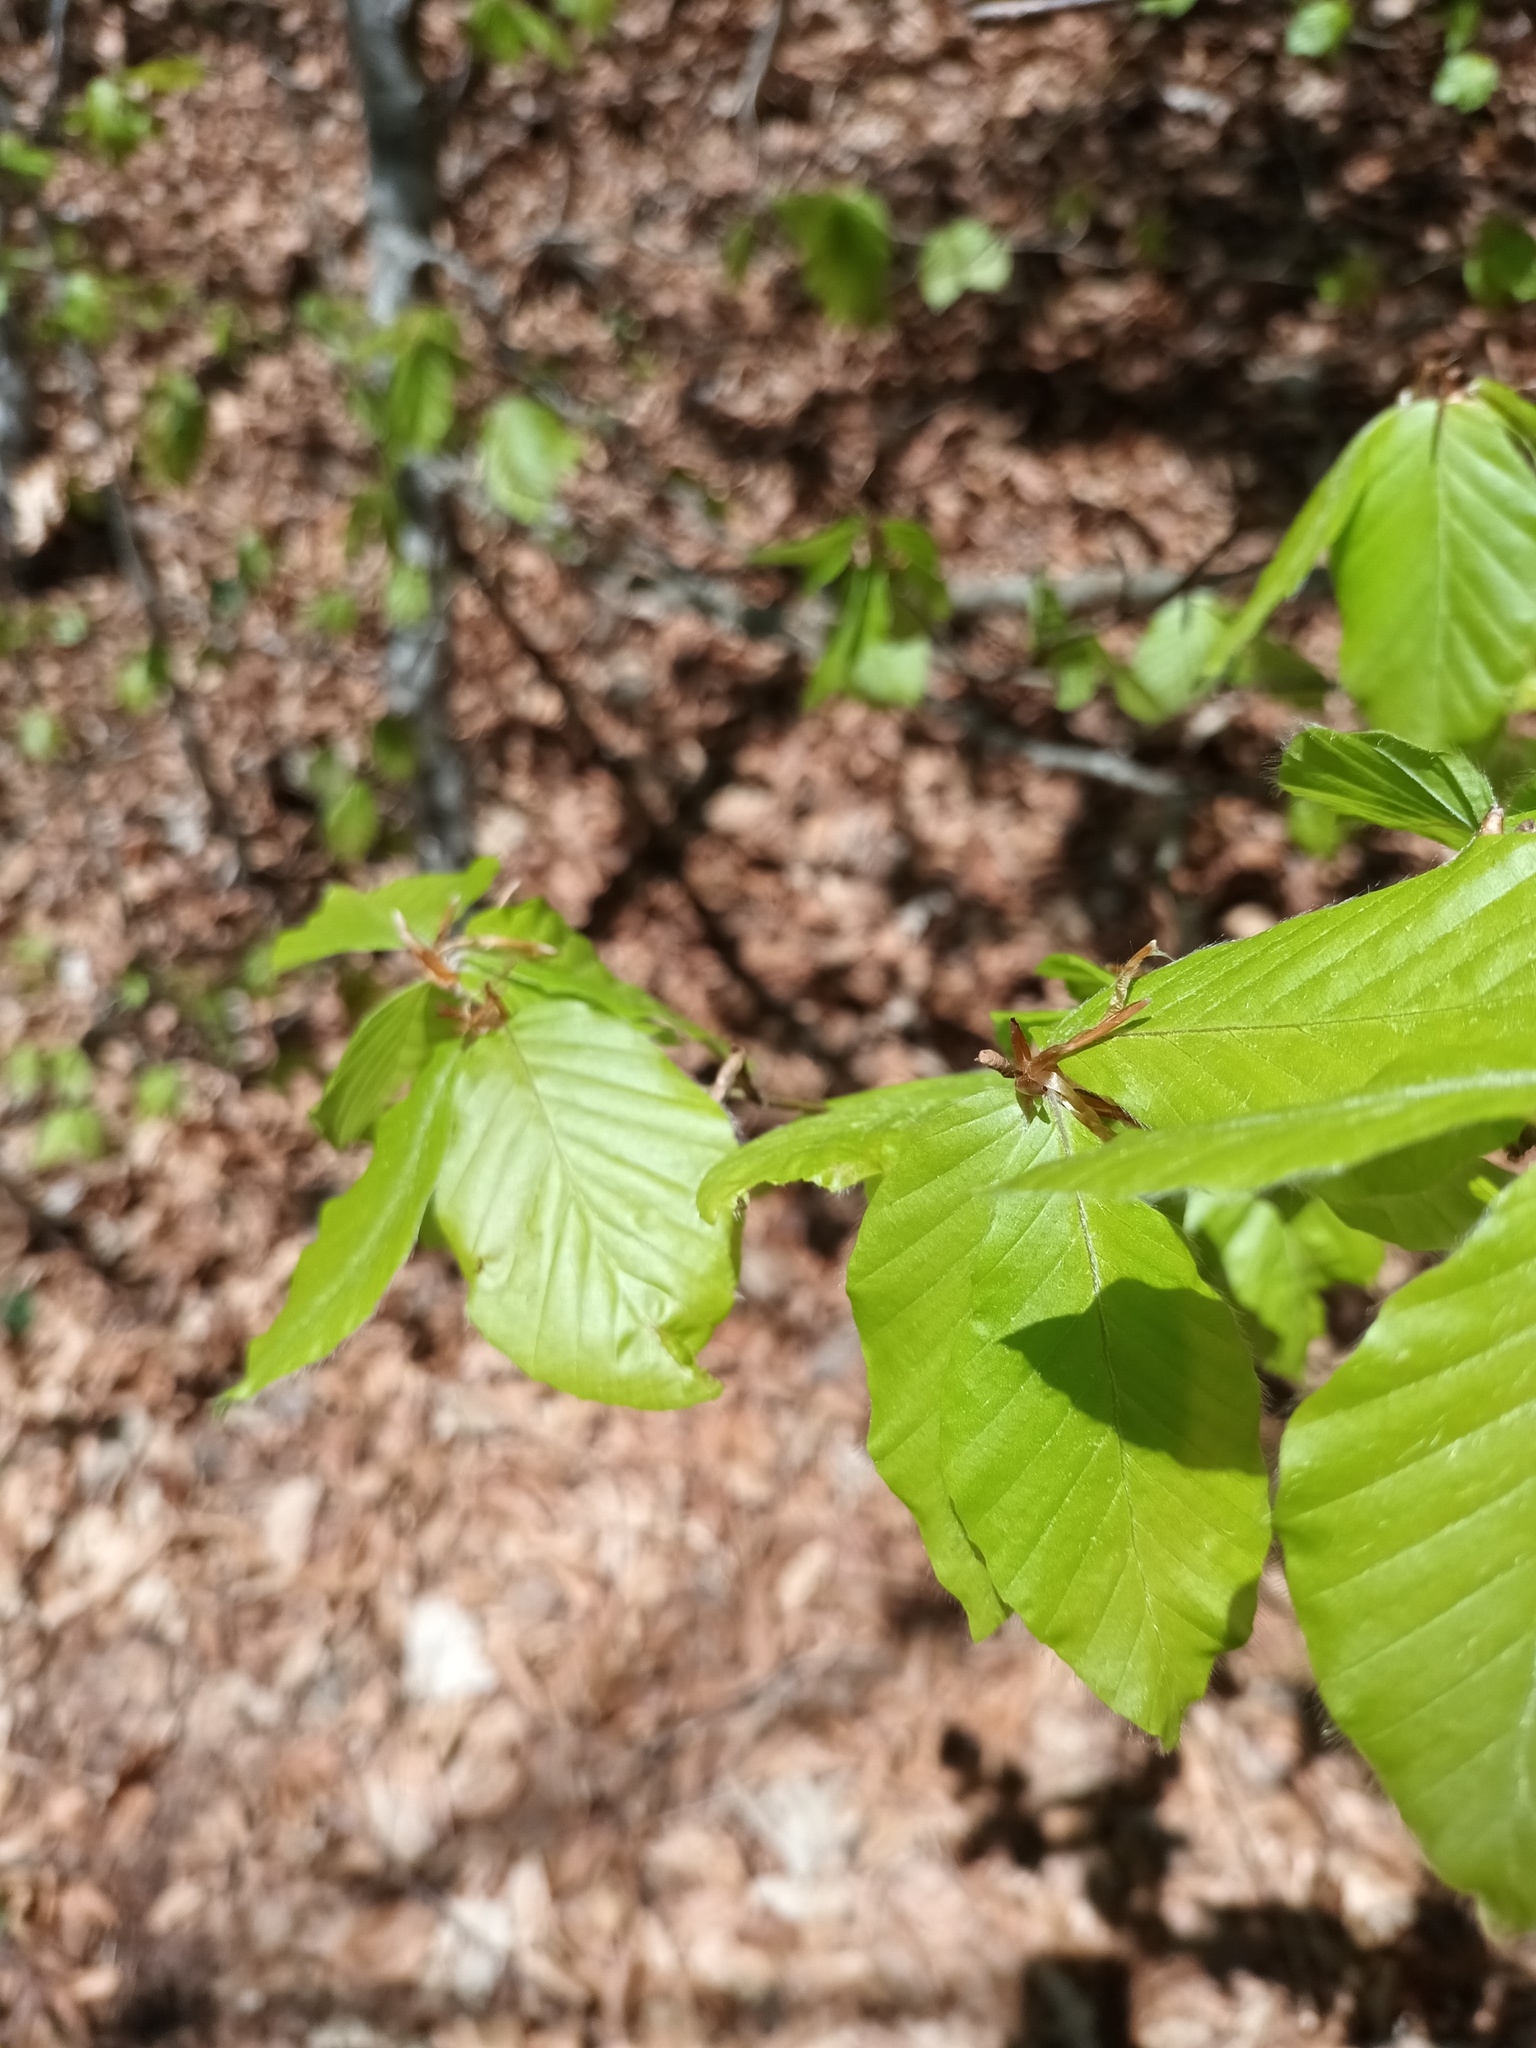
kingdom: Plantae
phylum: Tracheophyta
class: Magnoliopsida
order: Fagales
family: Fagaceae
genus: Fagus
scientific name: Fagus sylvatica
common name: Beech
